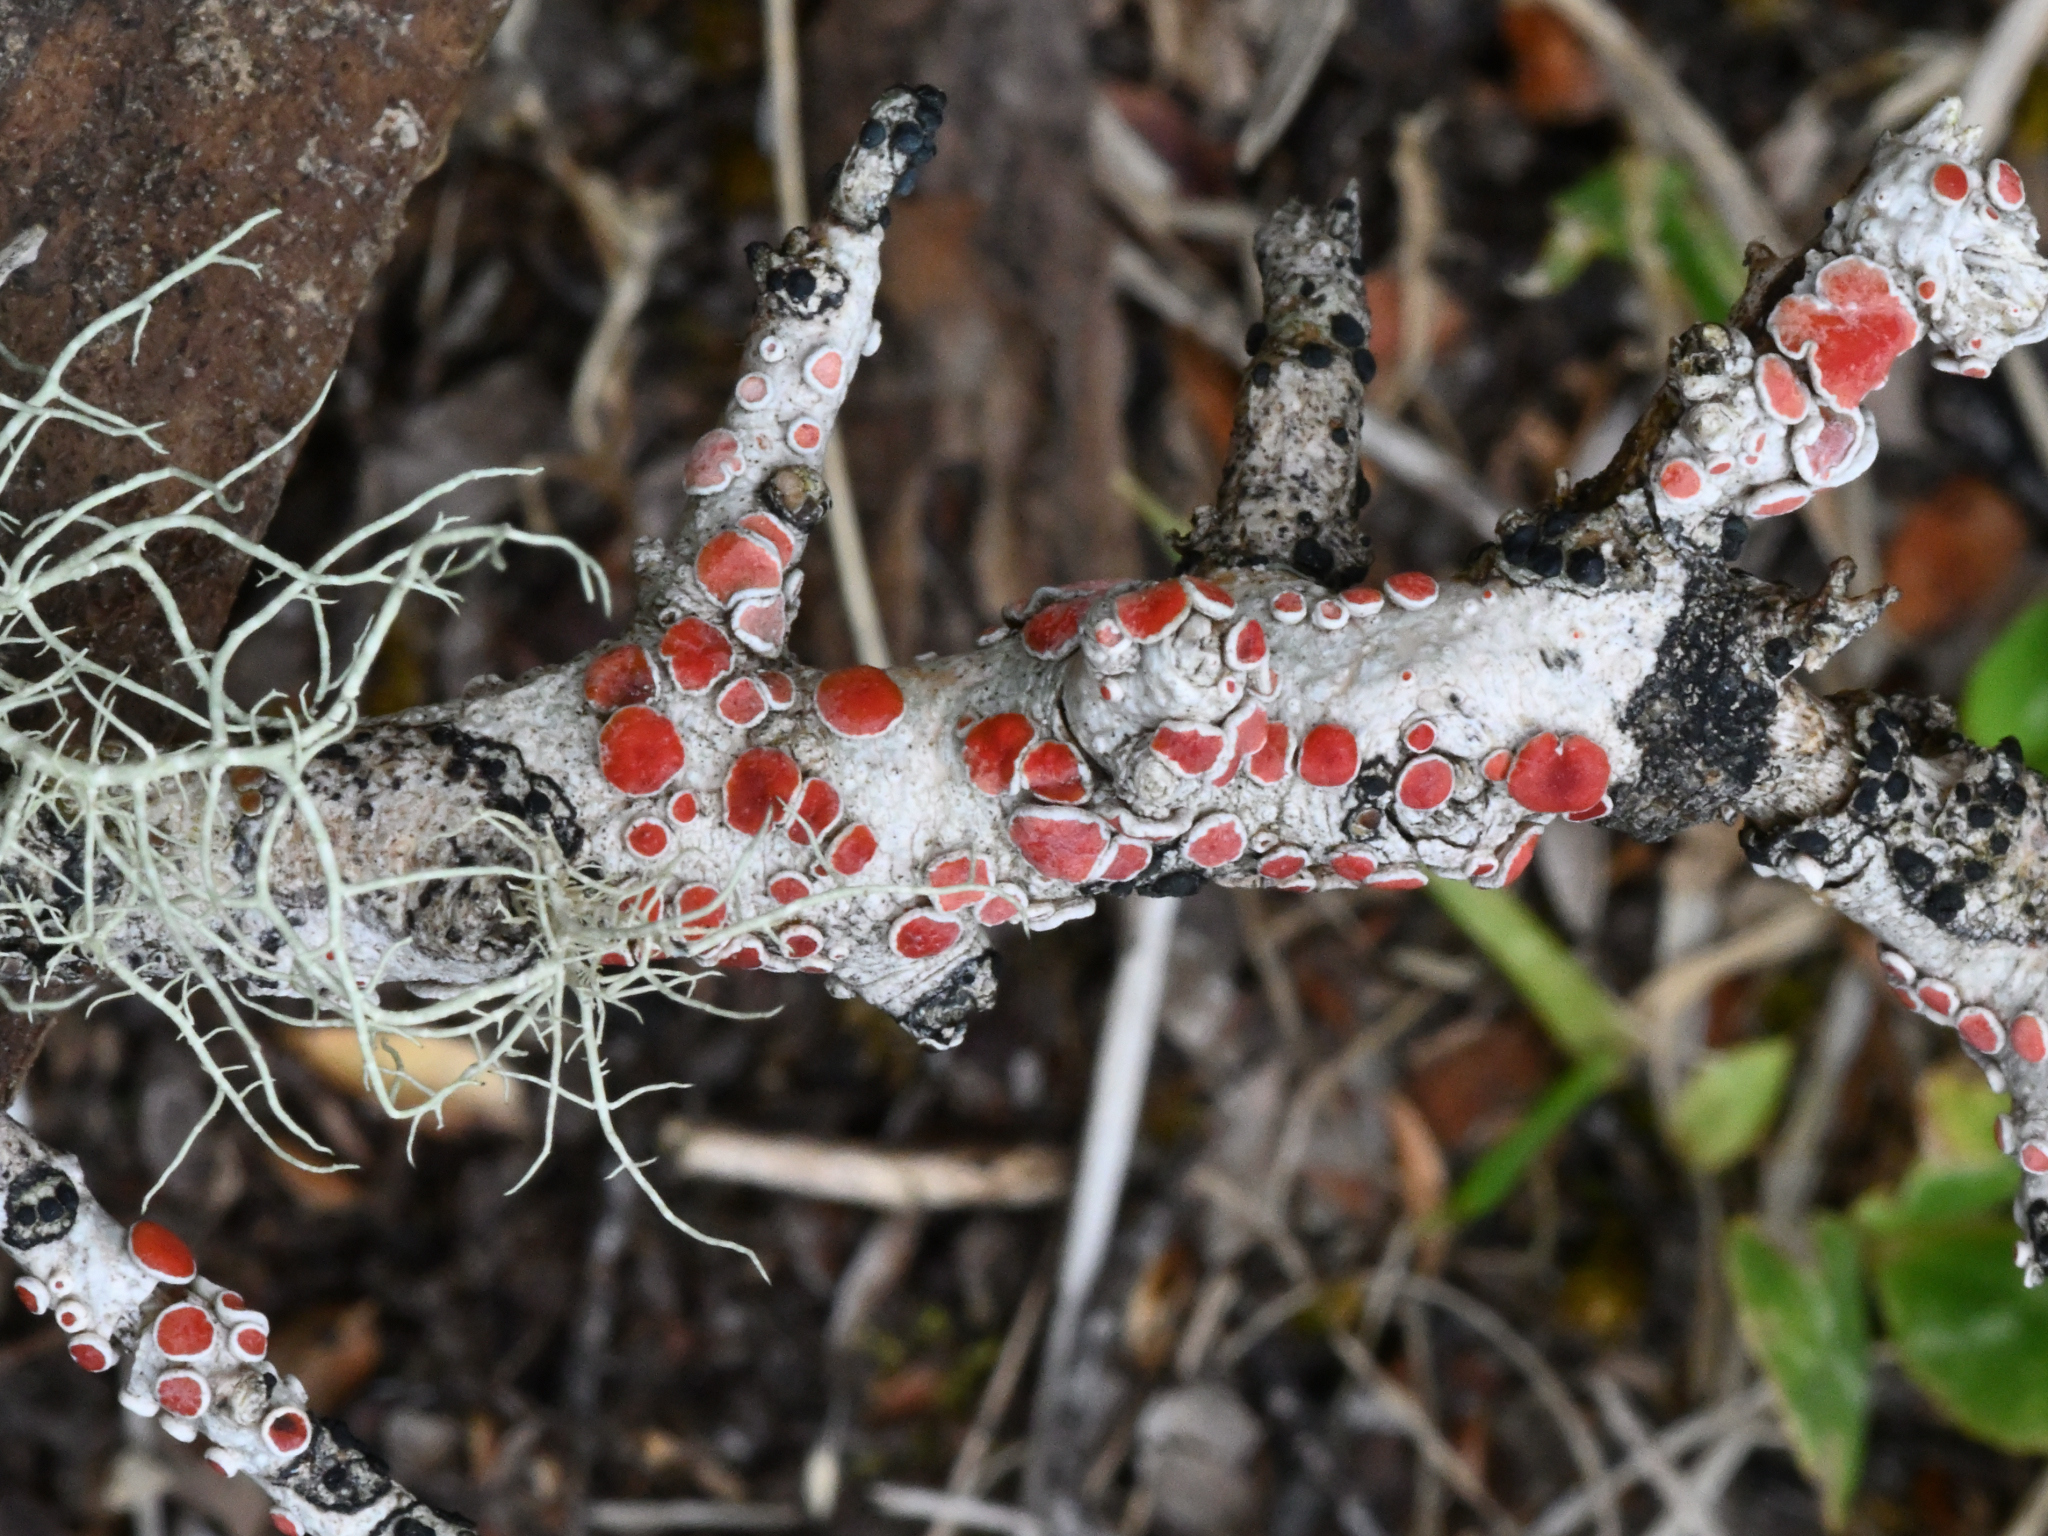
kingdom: Fungi
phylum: Ascomycota
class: Lecanoromycetes
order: Lecanorales
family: Haematommataceae
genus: Haematomma
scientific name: Haematomma
